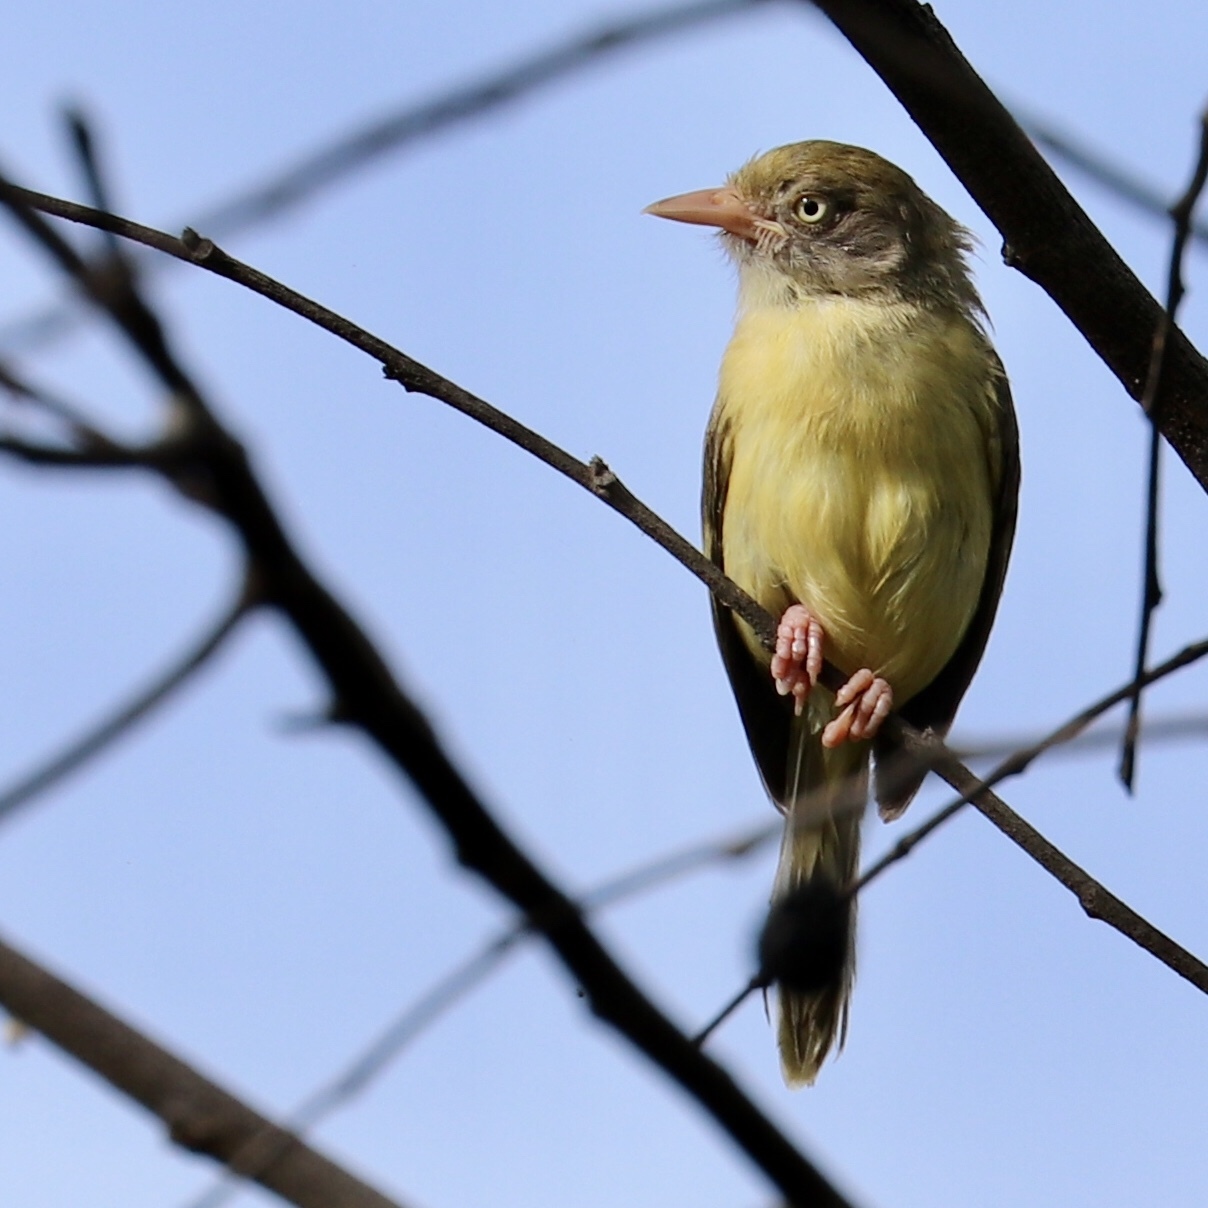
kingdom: Animalia
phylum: Chordata
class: Aves
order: Passeriformes
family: Vireonidae
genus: Hylophilus
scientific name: Hylophilus flavipes
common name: Scrub greenlet
